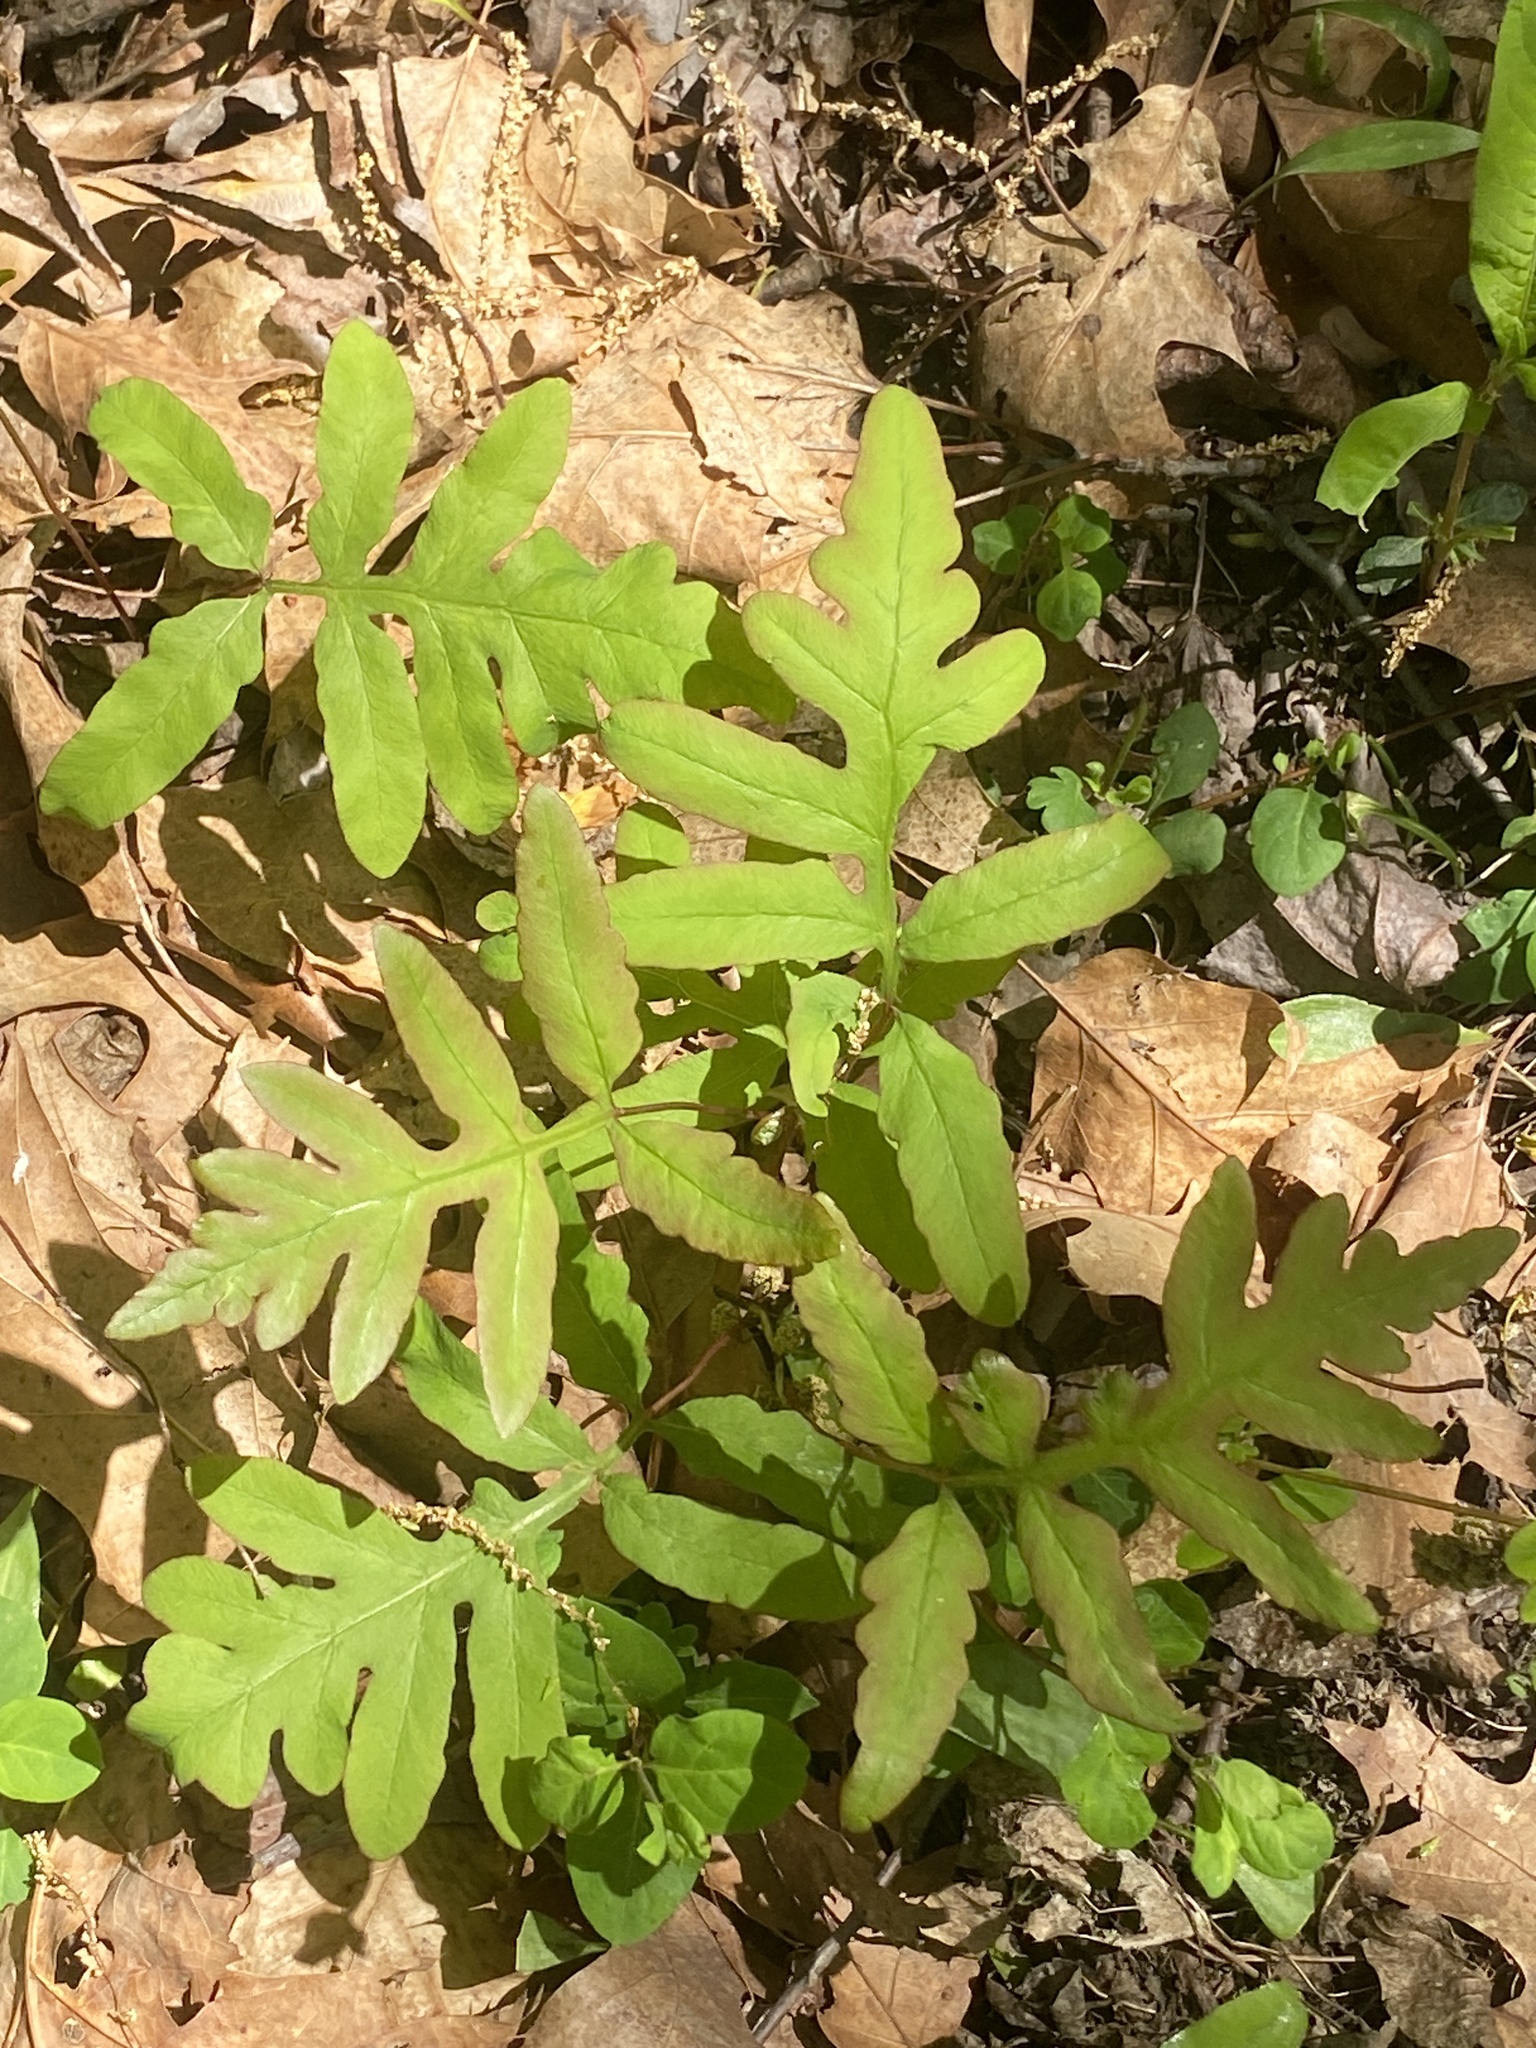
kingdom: Plantae
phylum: Tracheophyta
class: Polypodiopsida
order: Polypodiales
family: Onocleaceae
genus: Onoclea
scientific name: Onoclea sensibilis
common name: Sensitive fern
